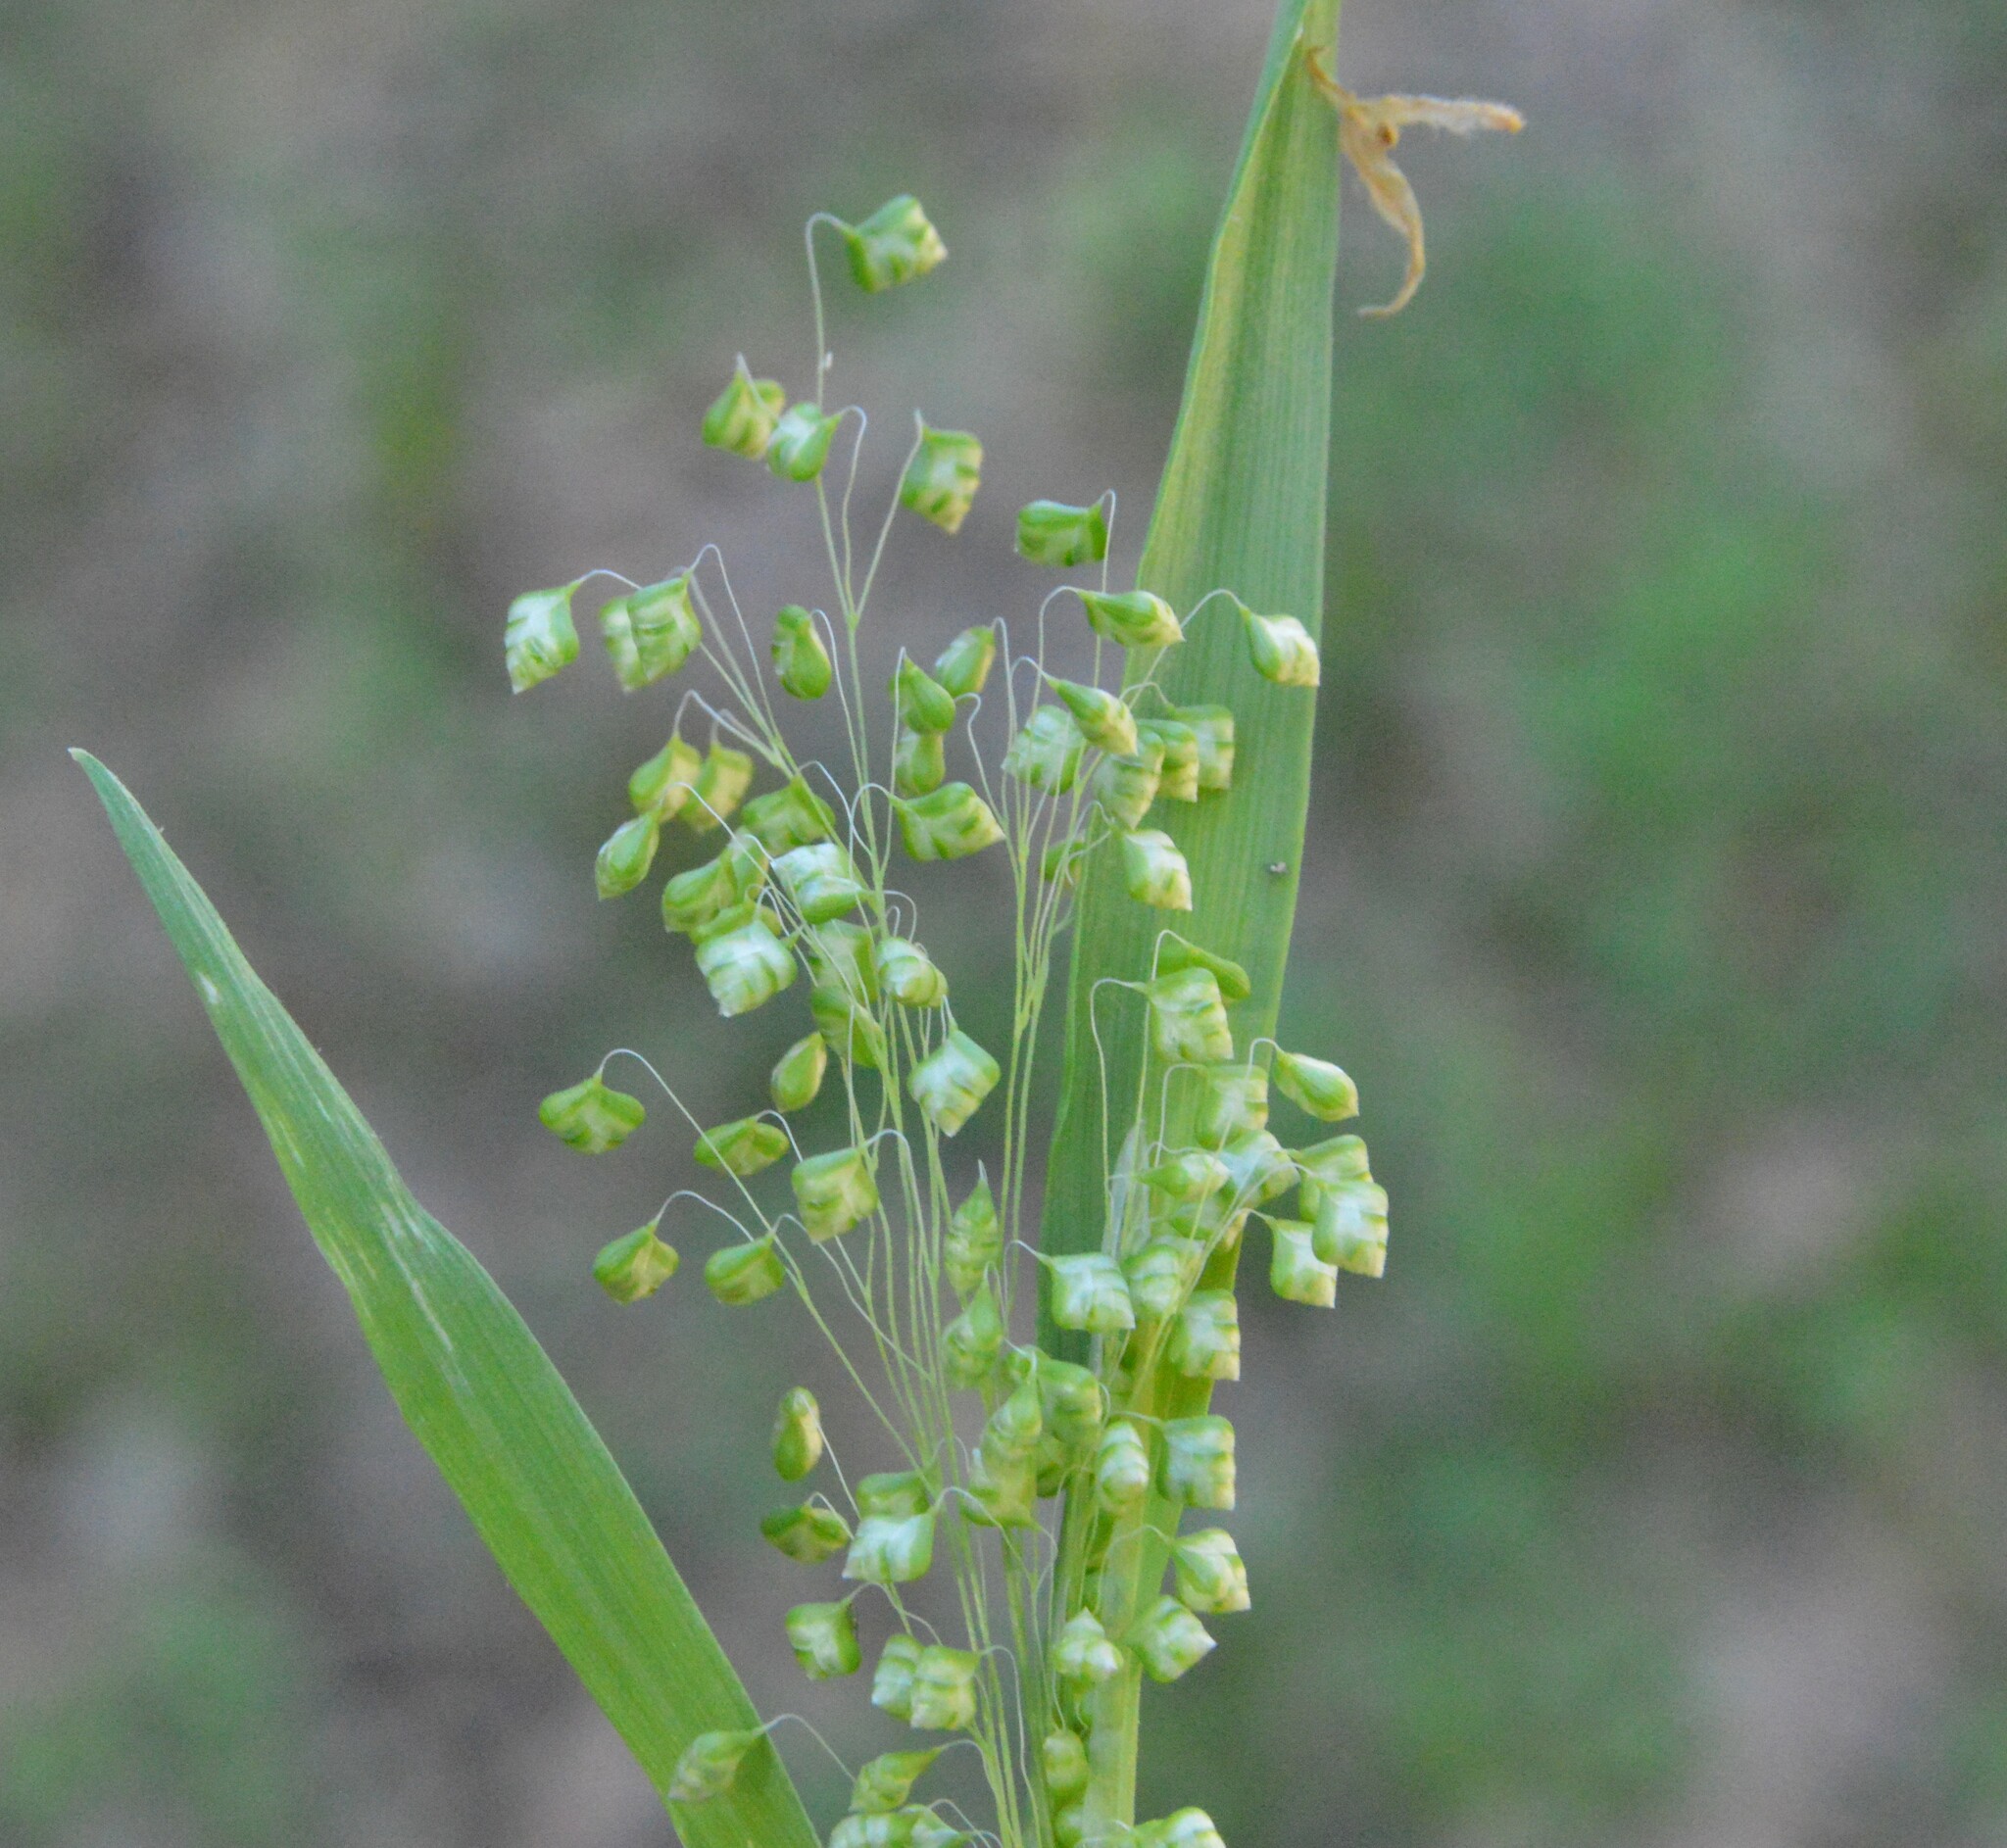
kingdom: Plantae
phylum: Tracheophyta
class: Liliopsida
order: Poales
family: Poaceae
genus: Briza
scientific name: Briza minor
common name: Lesser quaking-grass
